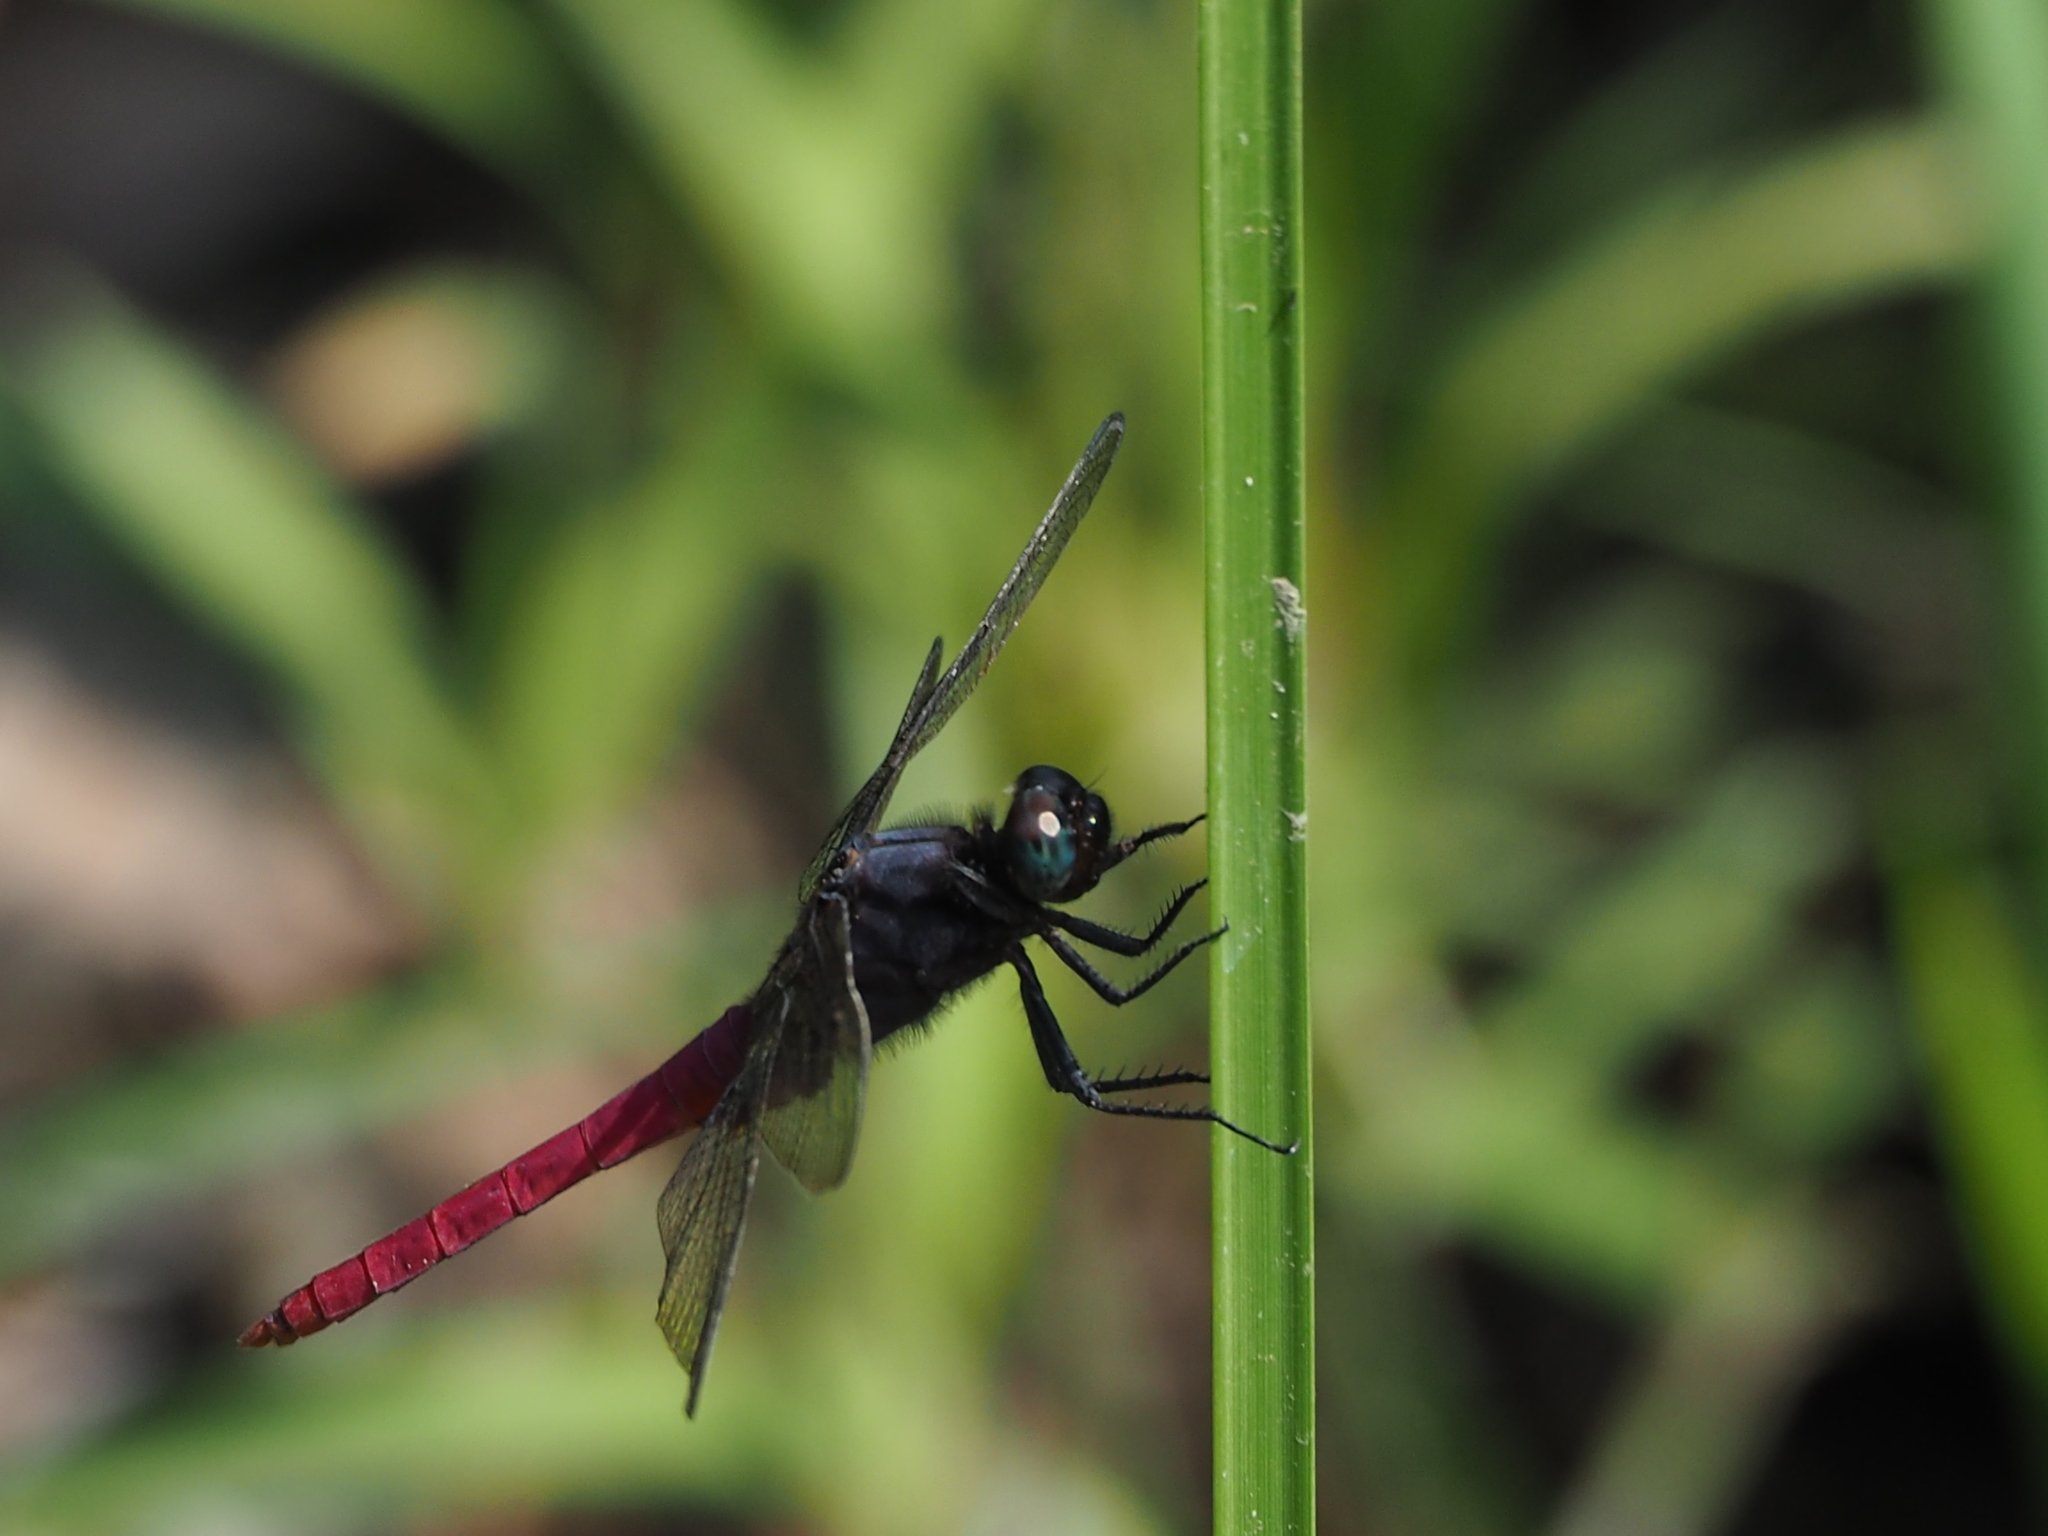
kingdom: Animalia
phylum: Arthropoda
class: Insecta
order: Odonata
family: Libellulidae
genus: Orthetrum
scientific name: Orthetrum pruinosum
